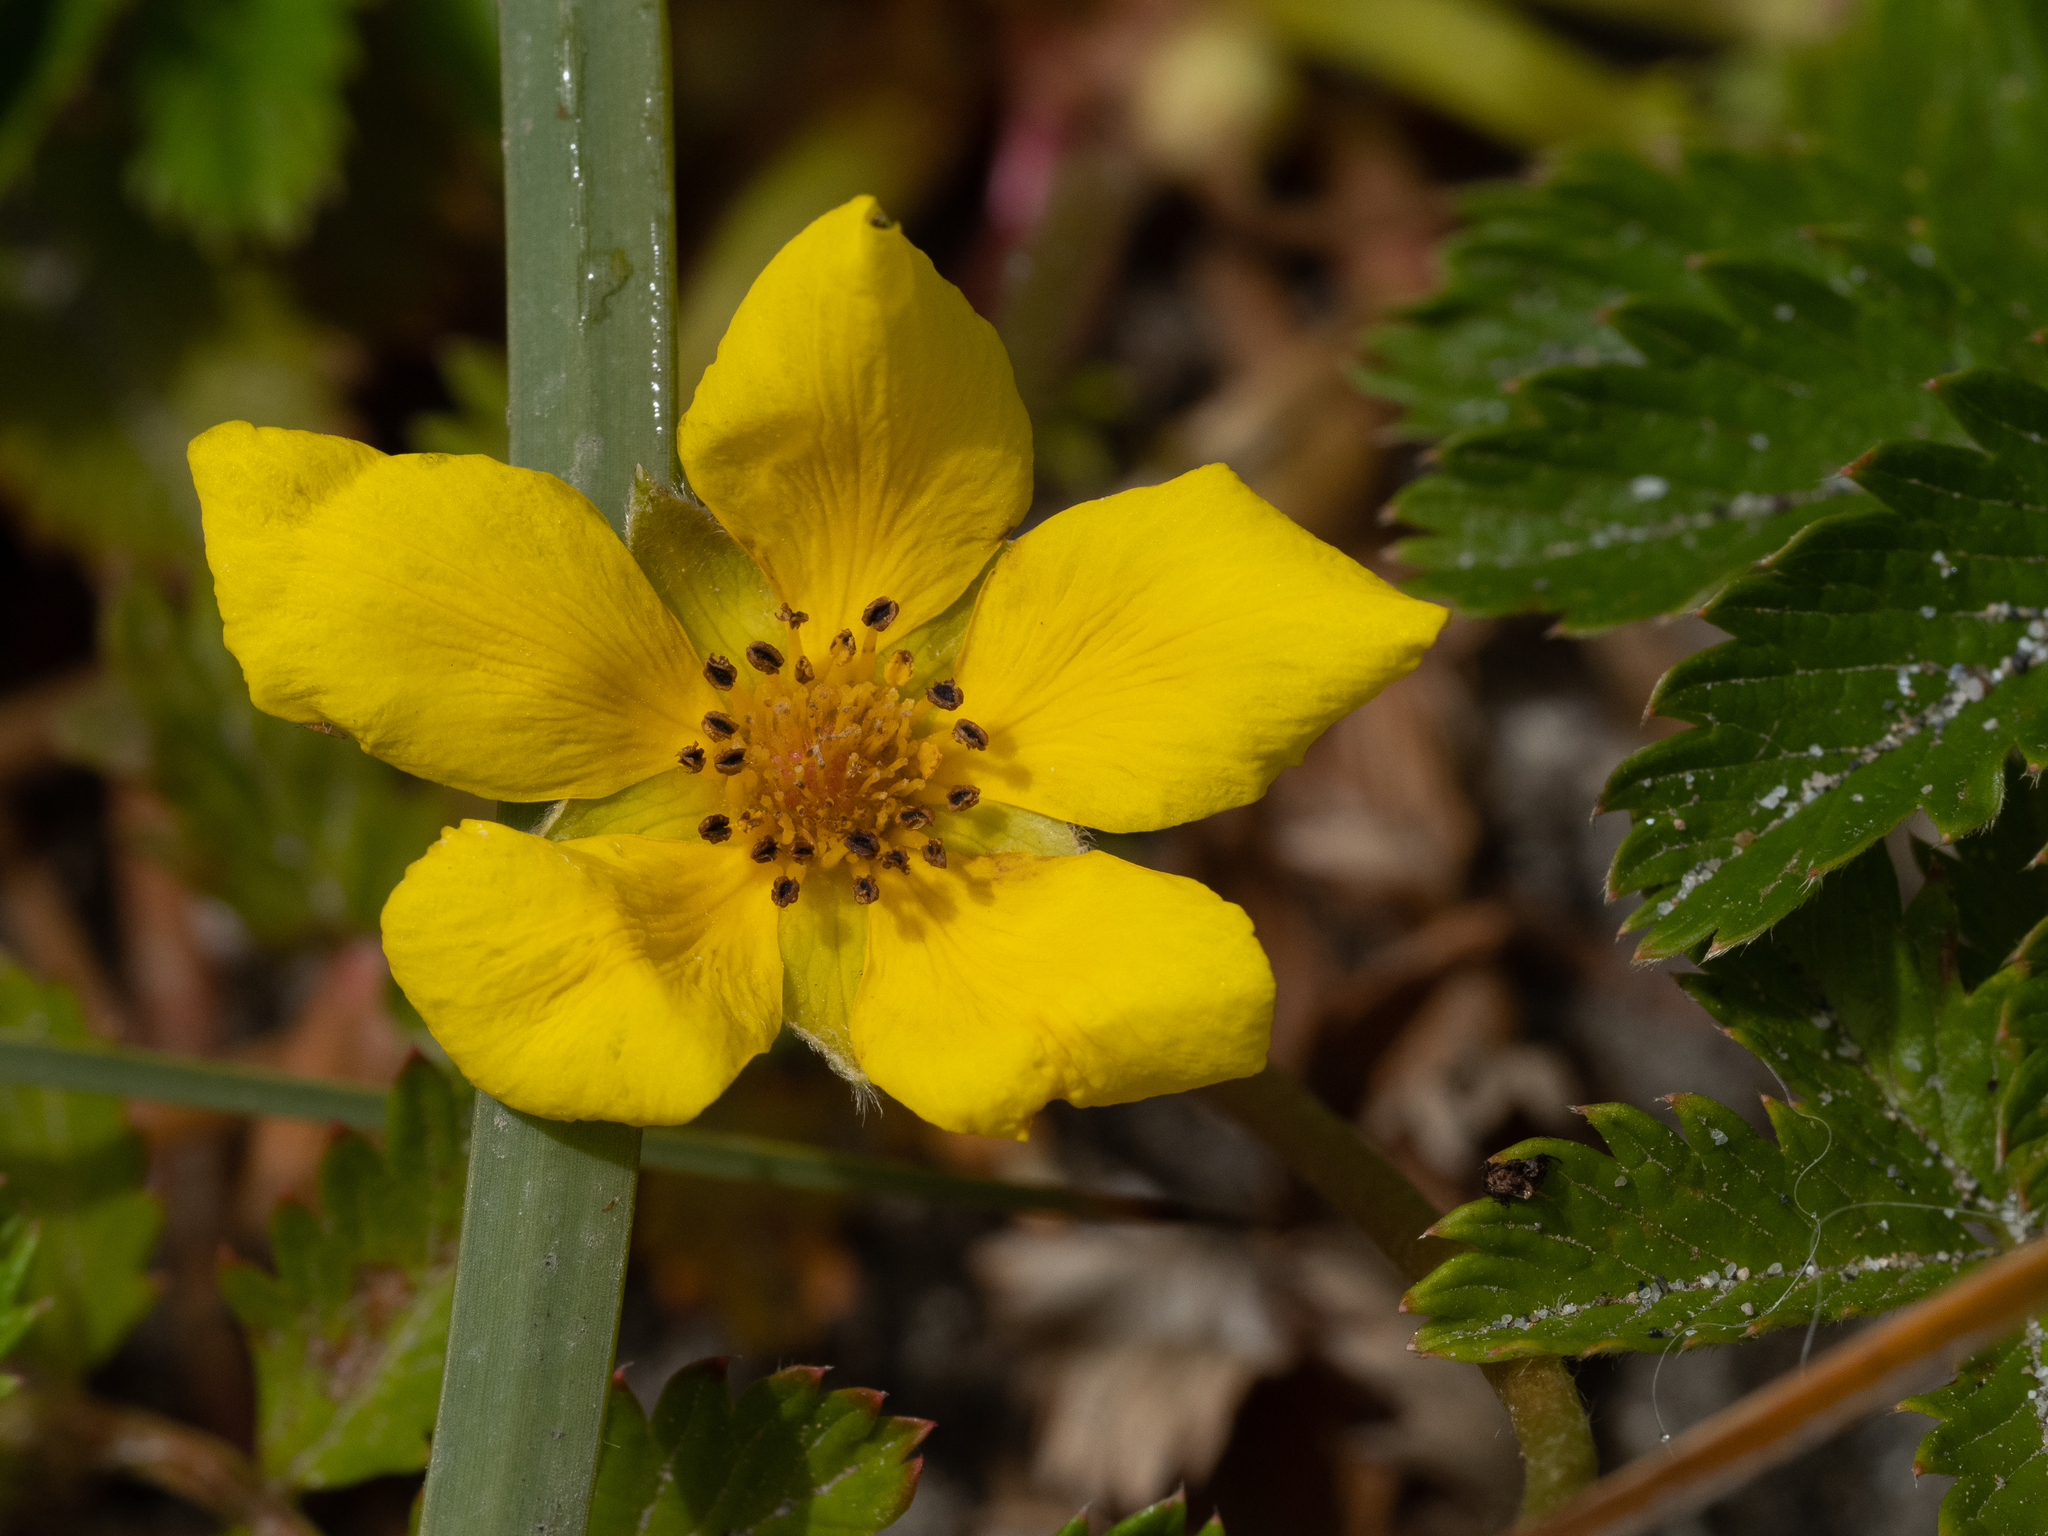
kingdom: Plantae
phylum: Tracheophyta
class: Magnoliopsida
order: Rosales
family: Rosaceae
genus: Argentina
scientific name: Argentina anserina
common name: Common silverweed
